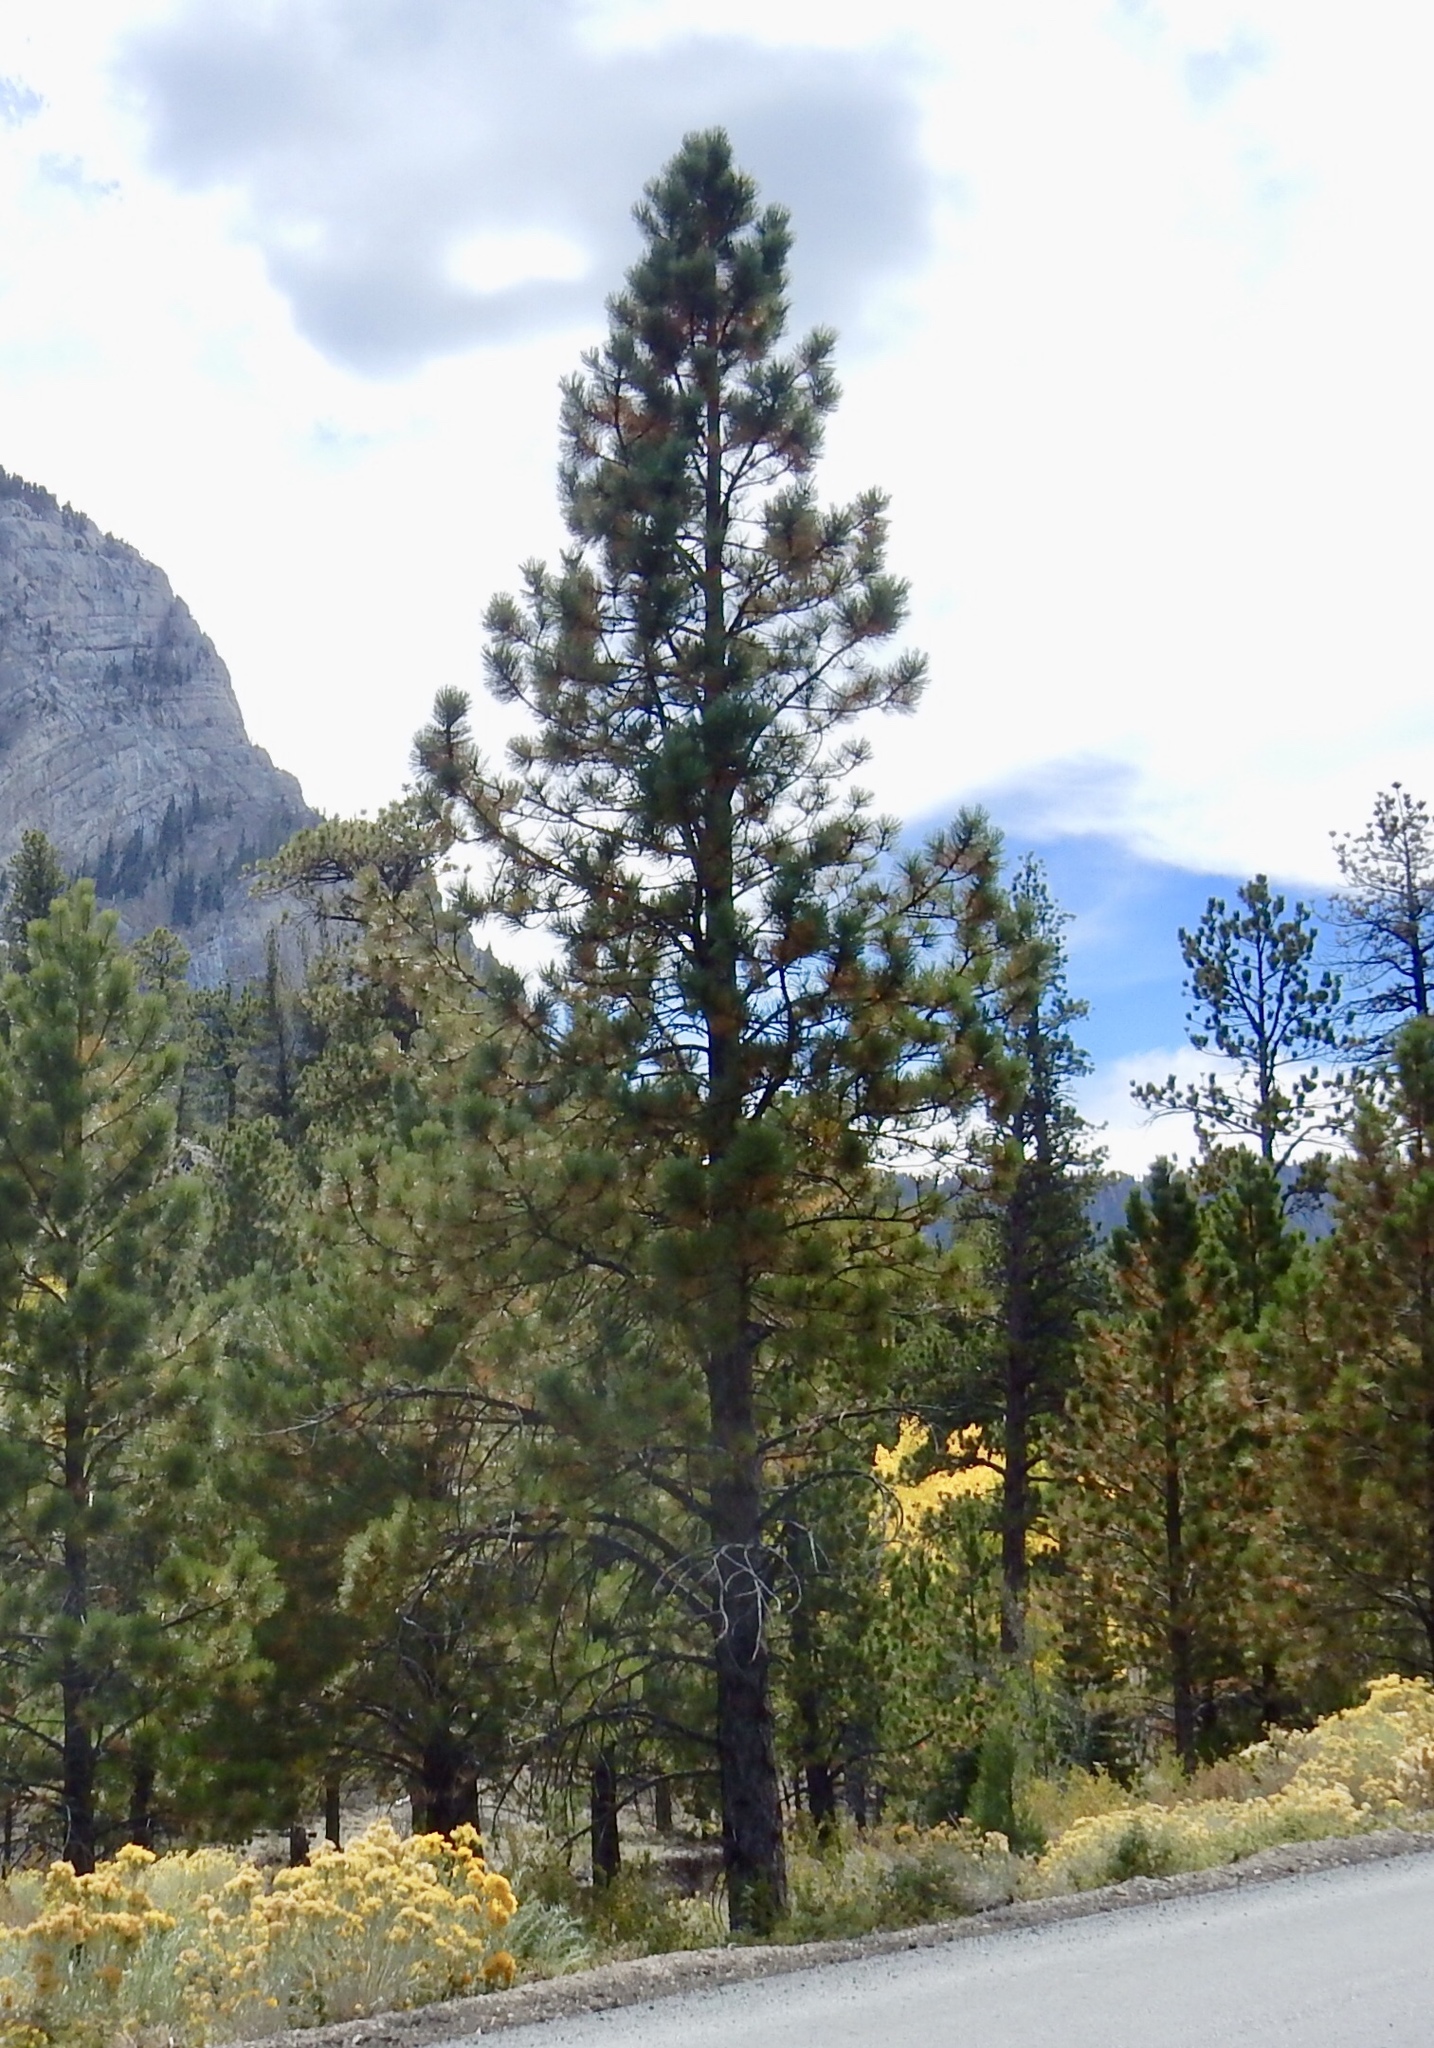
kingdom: Plantae
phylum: Tracheophyta
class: Pinopsida
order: Pinales
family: Pinaceae
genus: Pinus
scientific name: Pinus ponderosa
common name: Western yellow-pine
